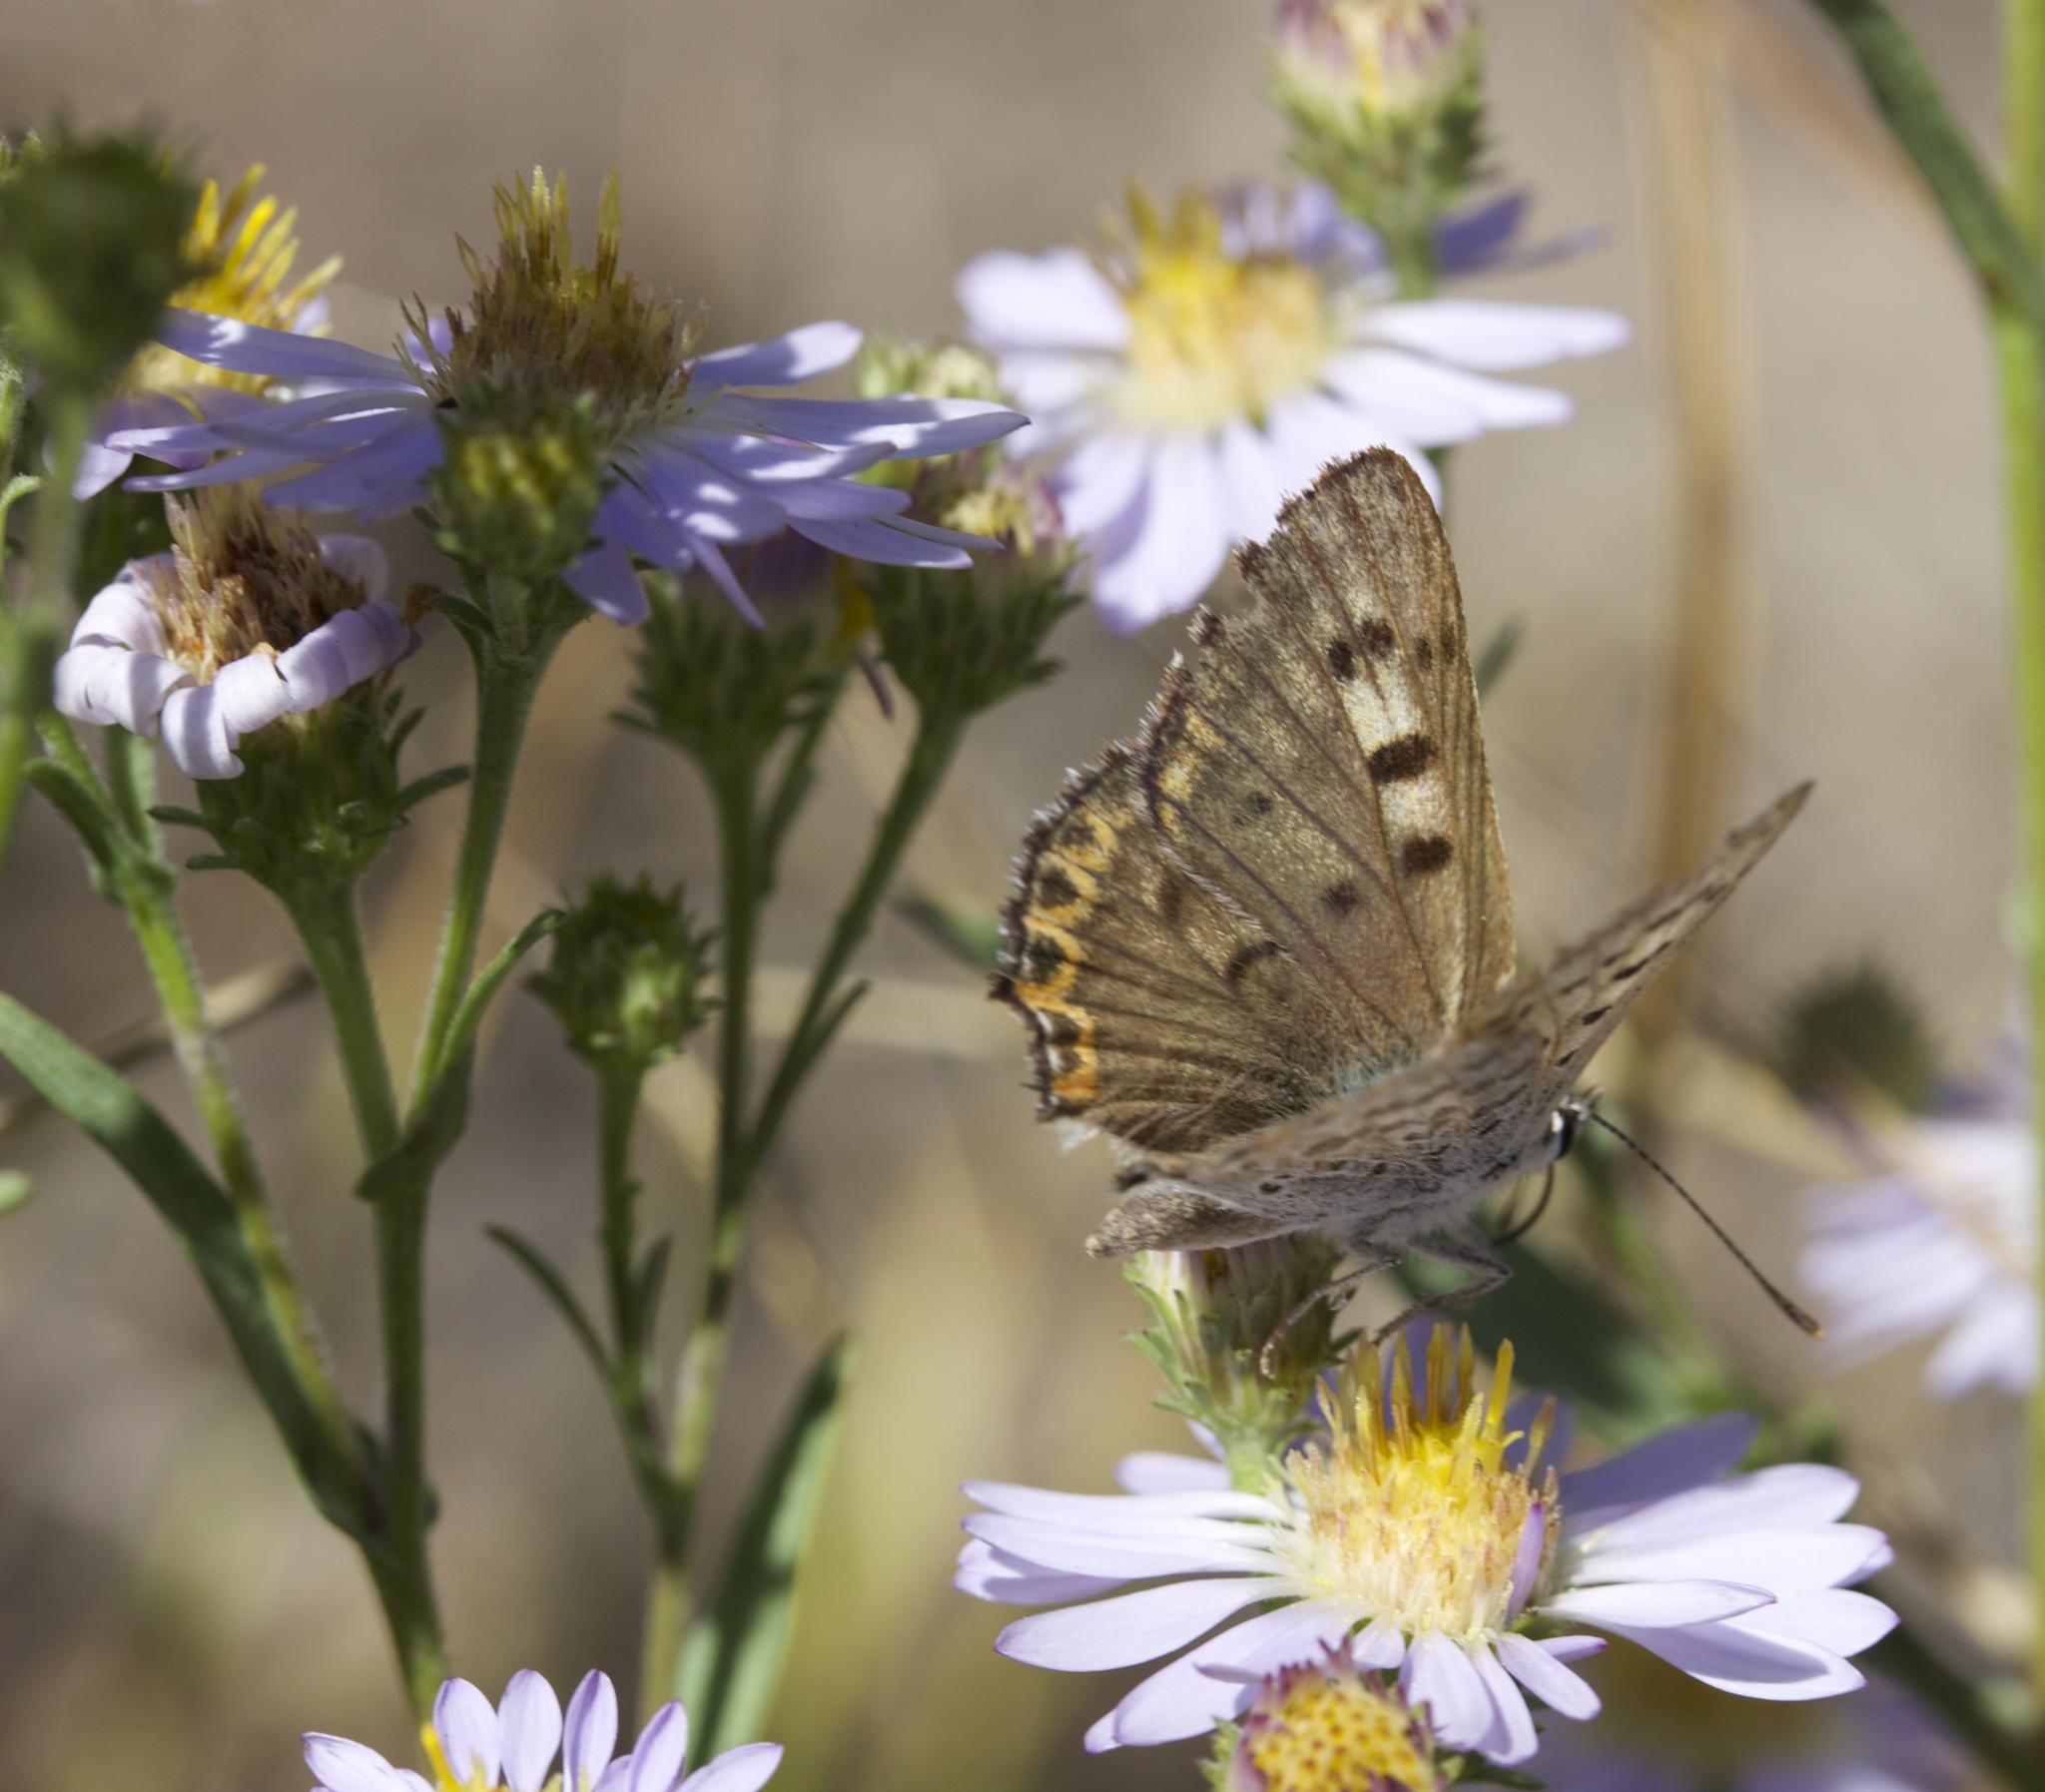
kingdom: Animalia
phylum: Arthropoda
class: Insecta
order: Lepidoptera
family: Lycaenidae
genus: Tharsalea
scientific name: Tharsalea editha
